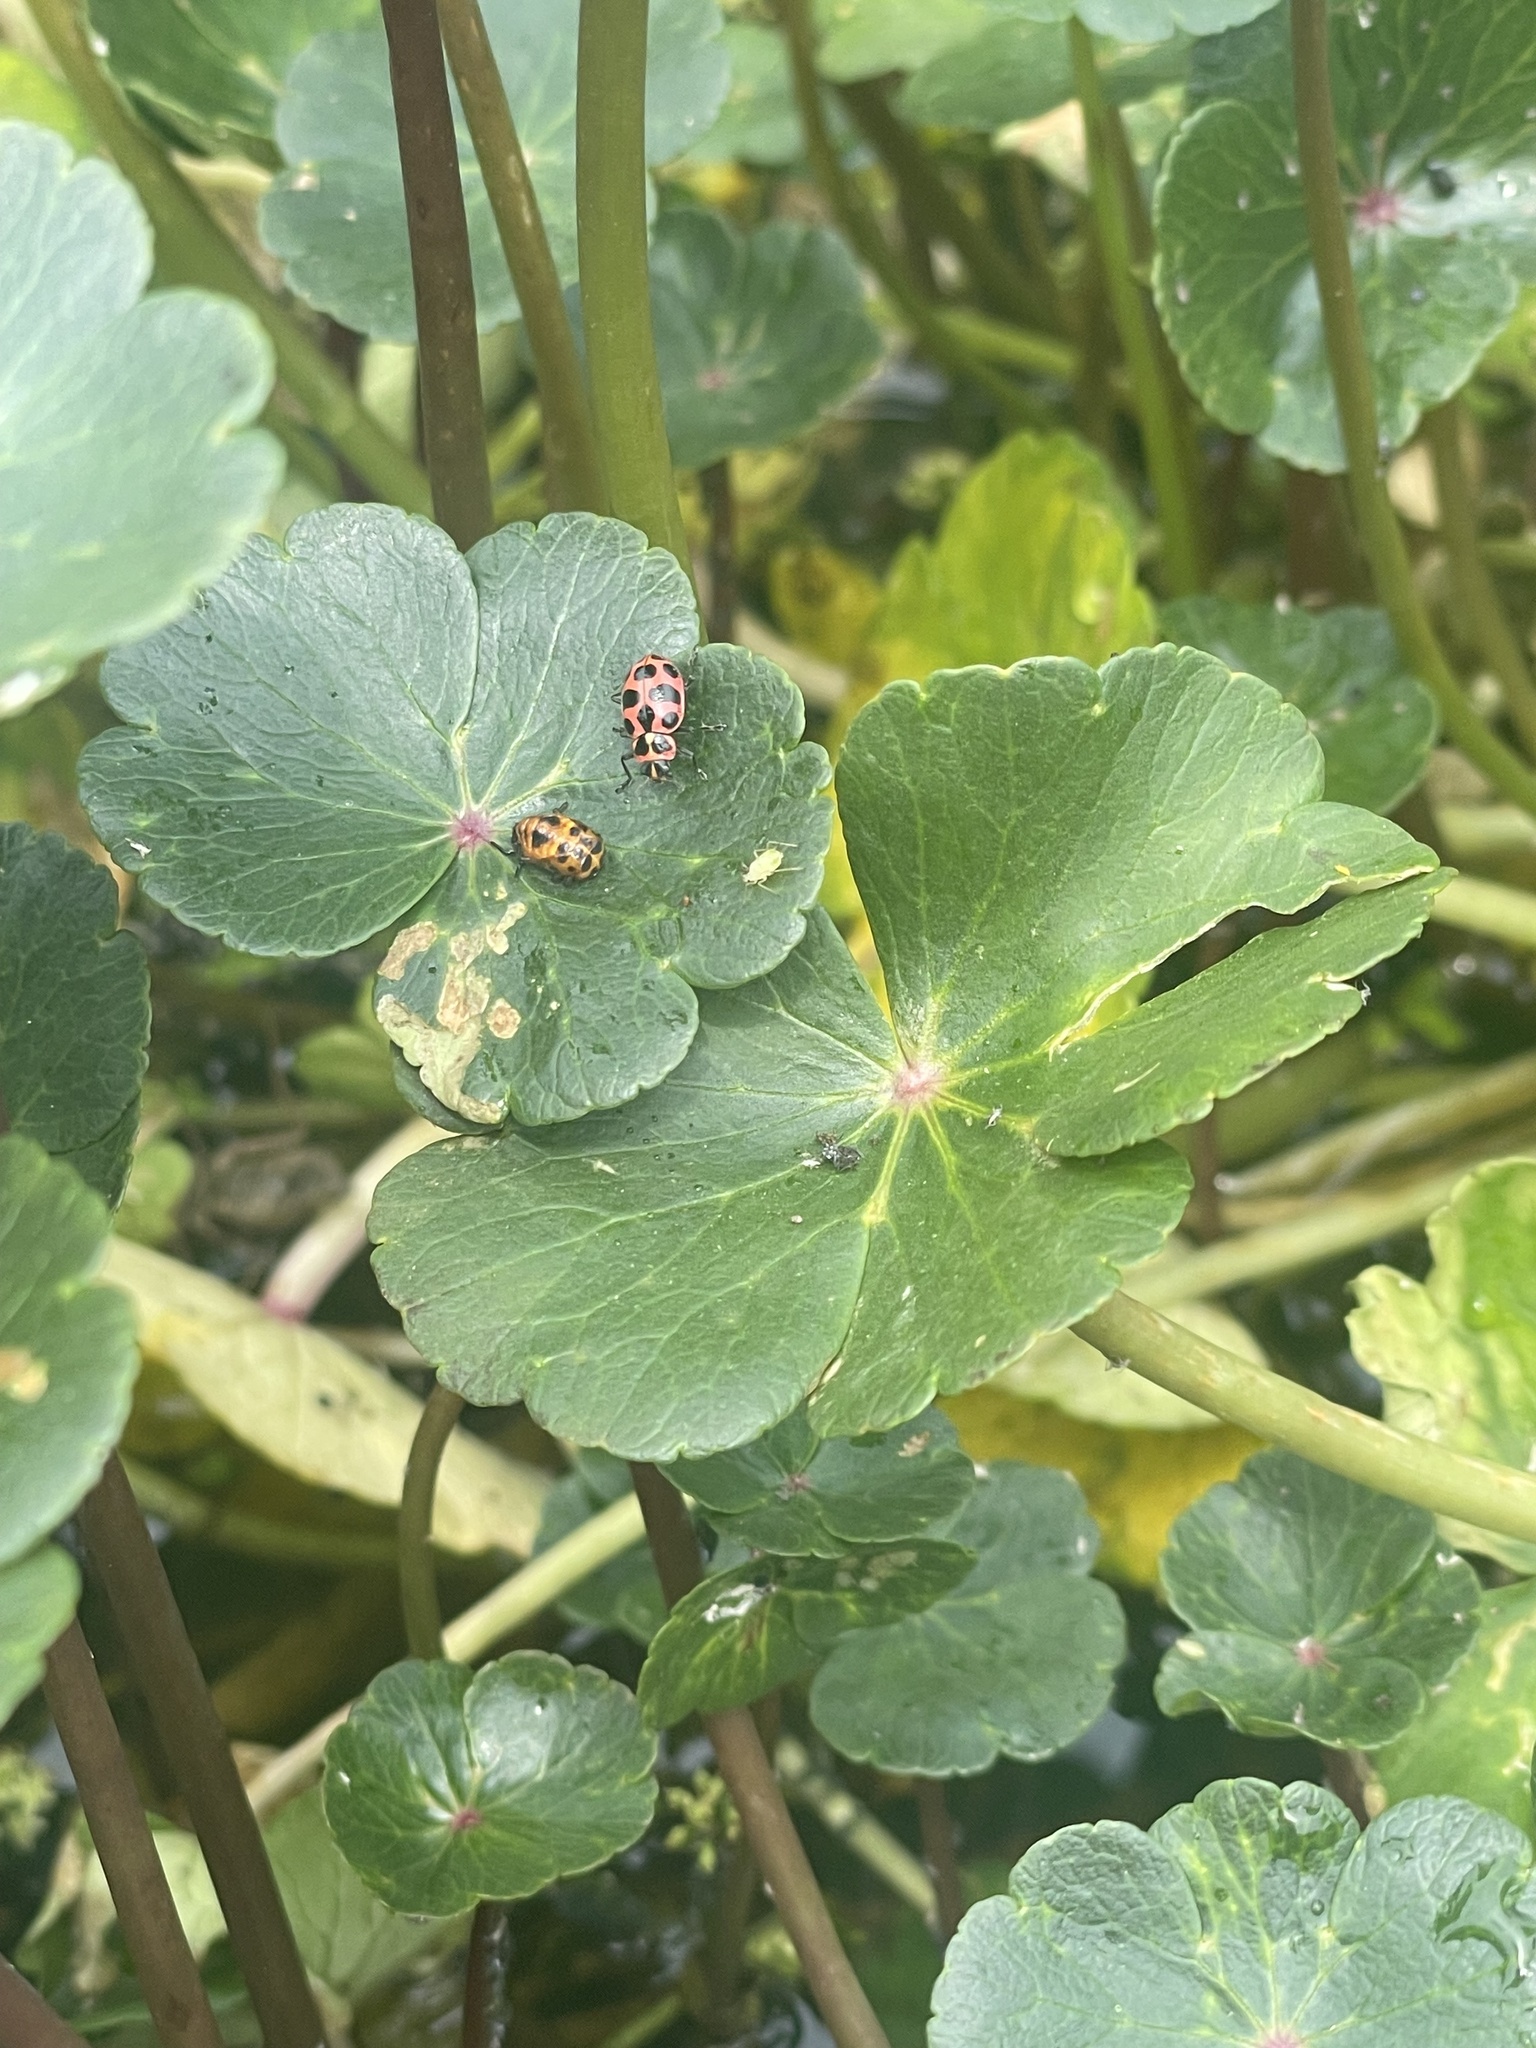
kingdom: Animalia
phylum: Arthropoda
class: Insecta
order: Coleoptera
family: Coccinellidae
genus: Coleomegilla
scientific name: Coleomegilla maculata
